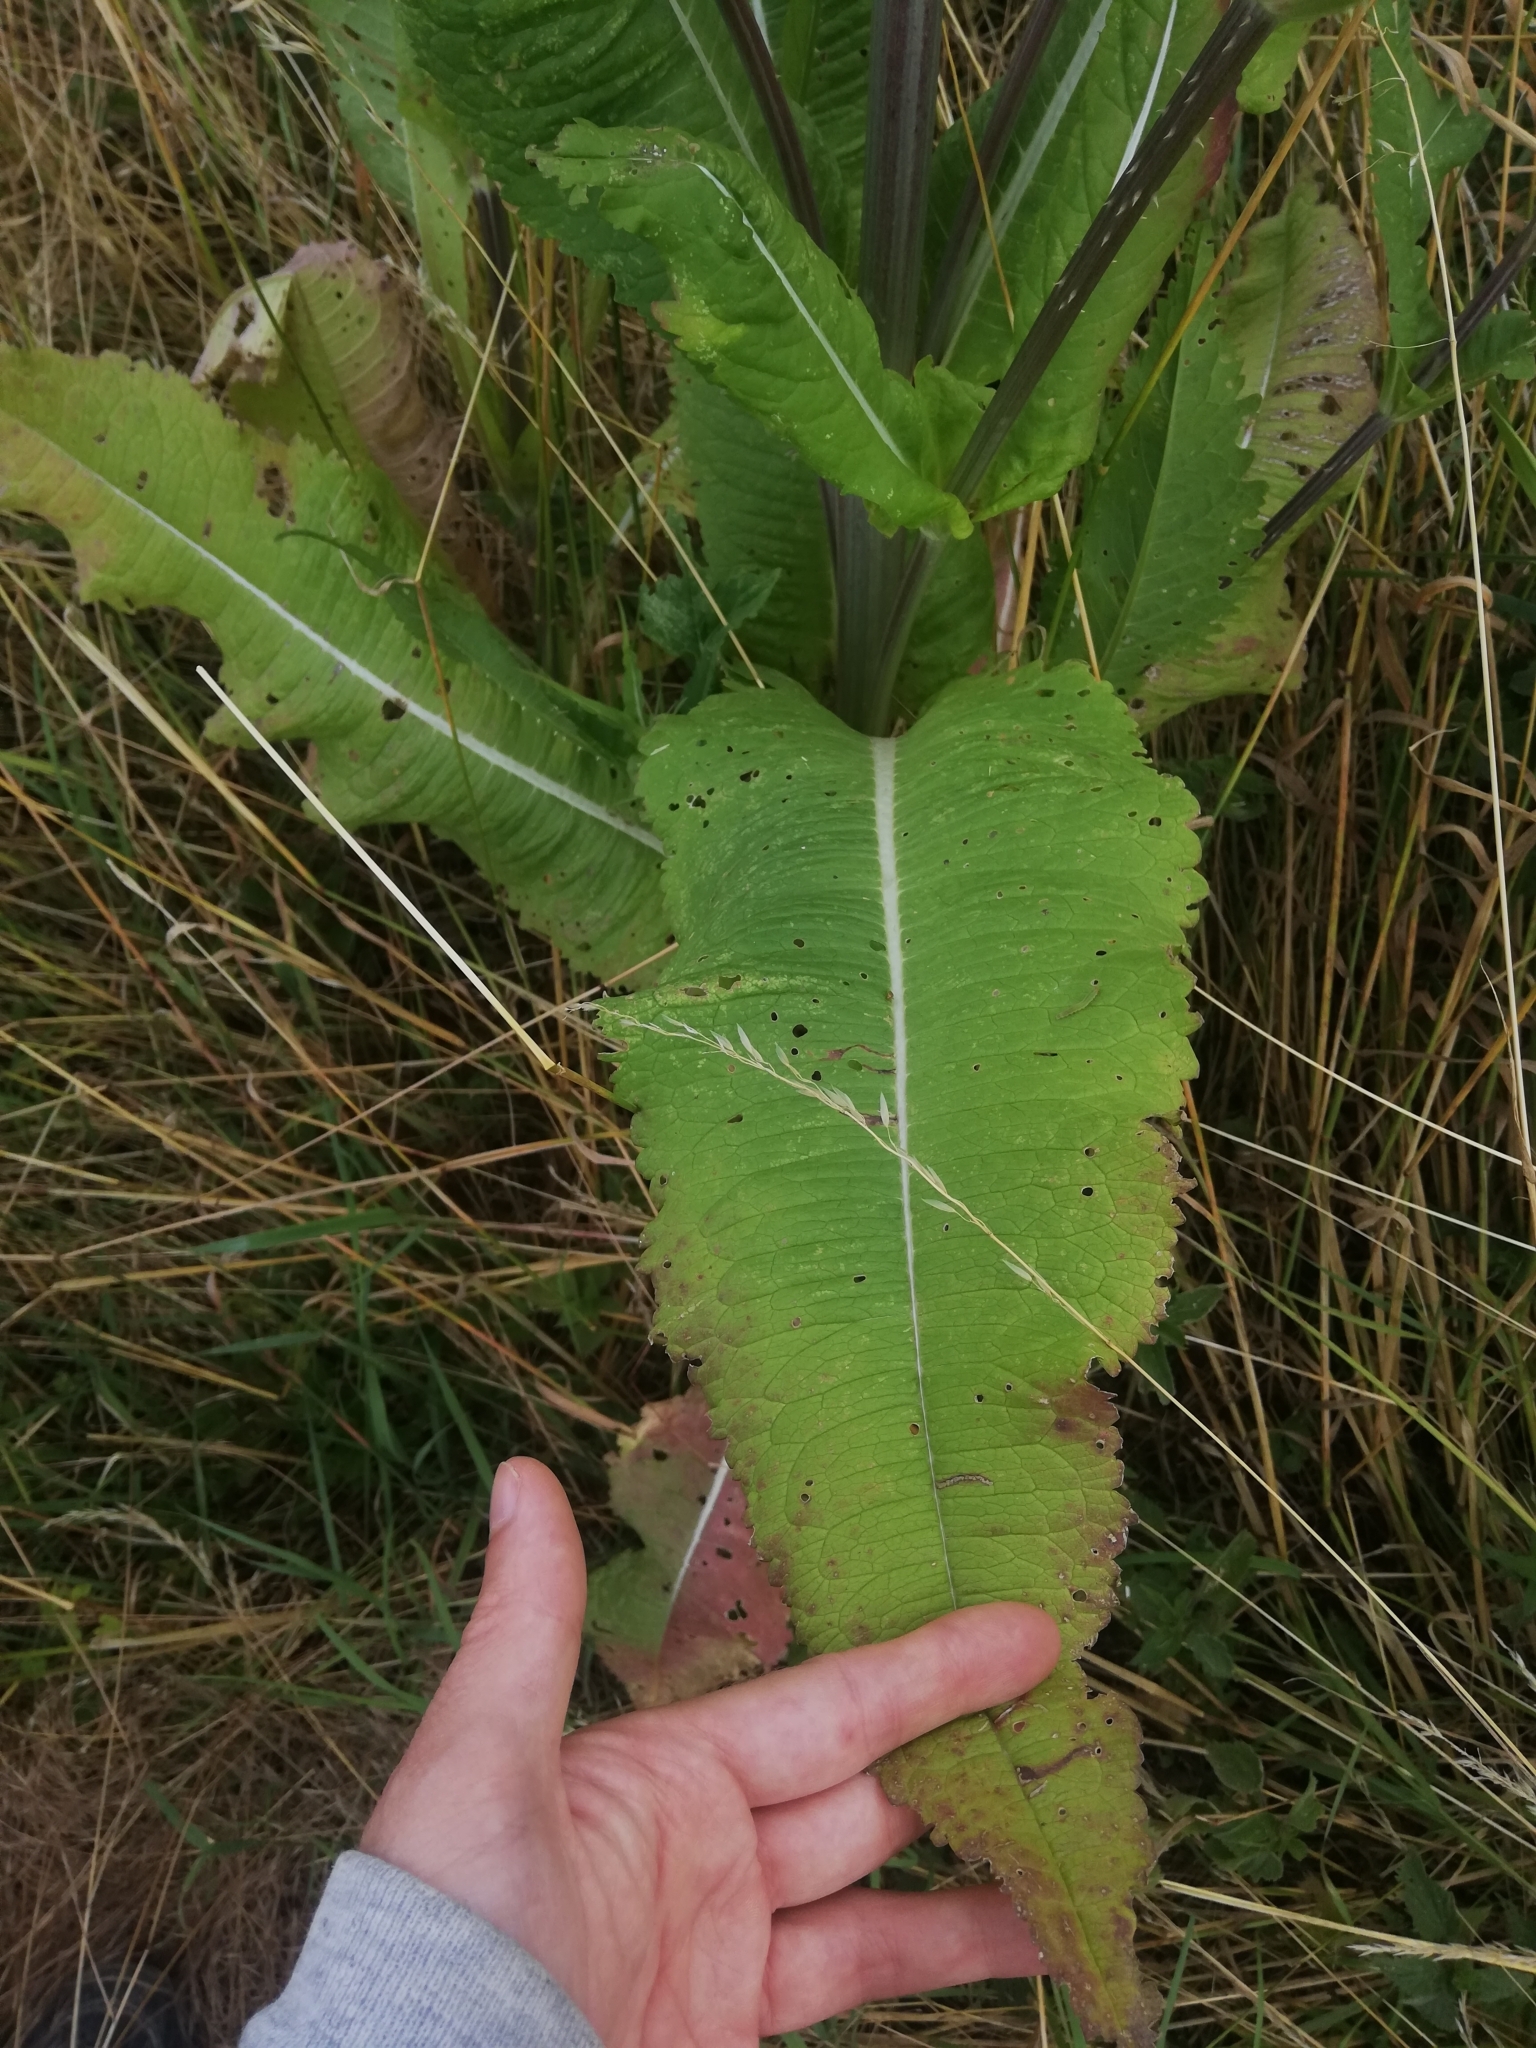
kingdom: Plantae
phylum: Tracheophyta
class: Magnoliopsida
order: Dipsacales
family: Caprifoliaceae
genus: Dipsacus
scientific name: Dipsacus fullonum
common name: Teasel
